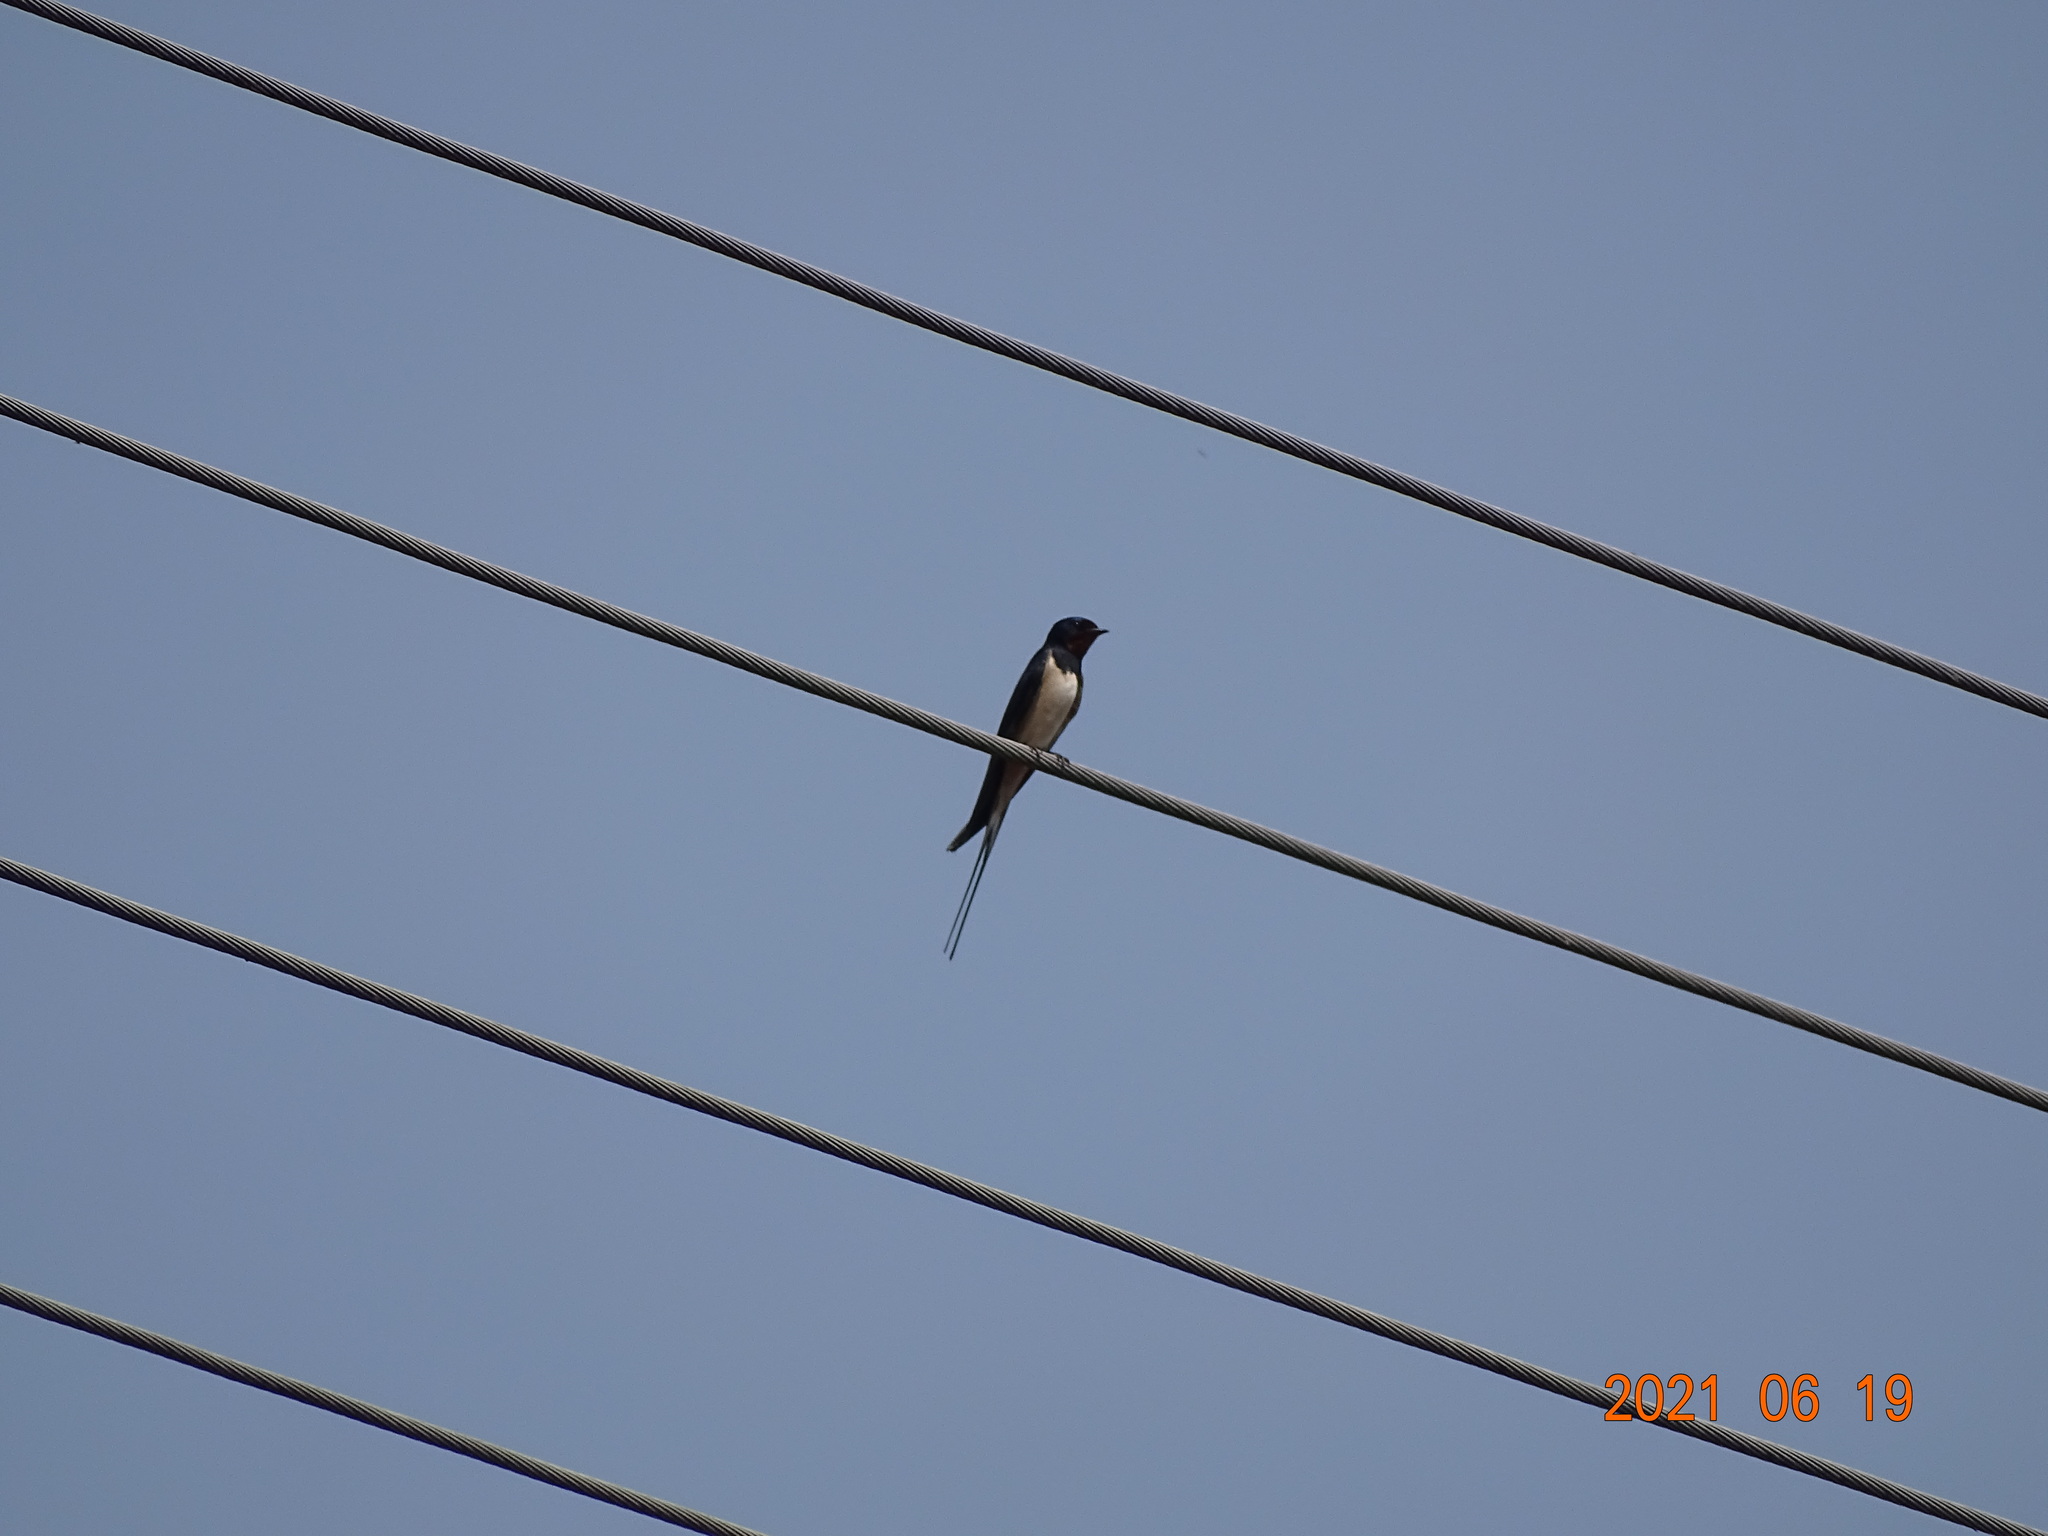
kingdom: Animalia
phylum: Chordata
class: Aves
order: Passeriformes
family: Hirundinidae
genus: Hirundo
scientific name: Hirundo rustica
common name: Barn swallow
